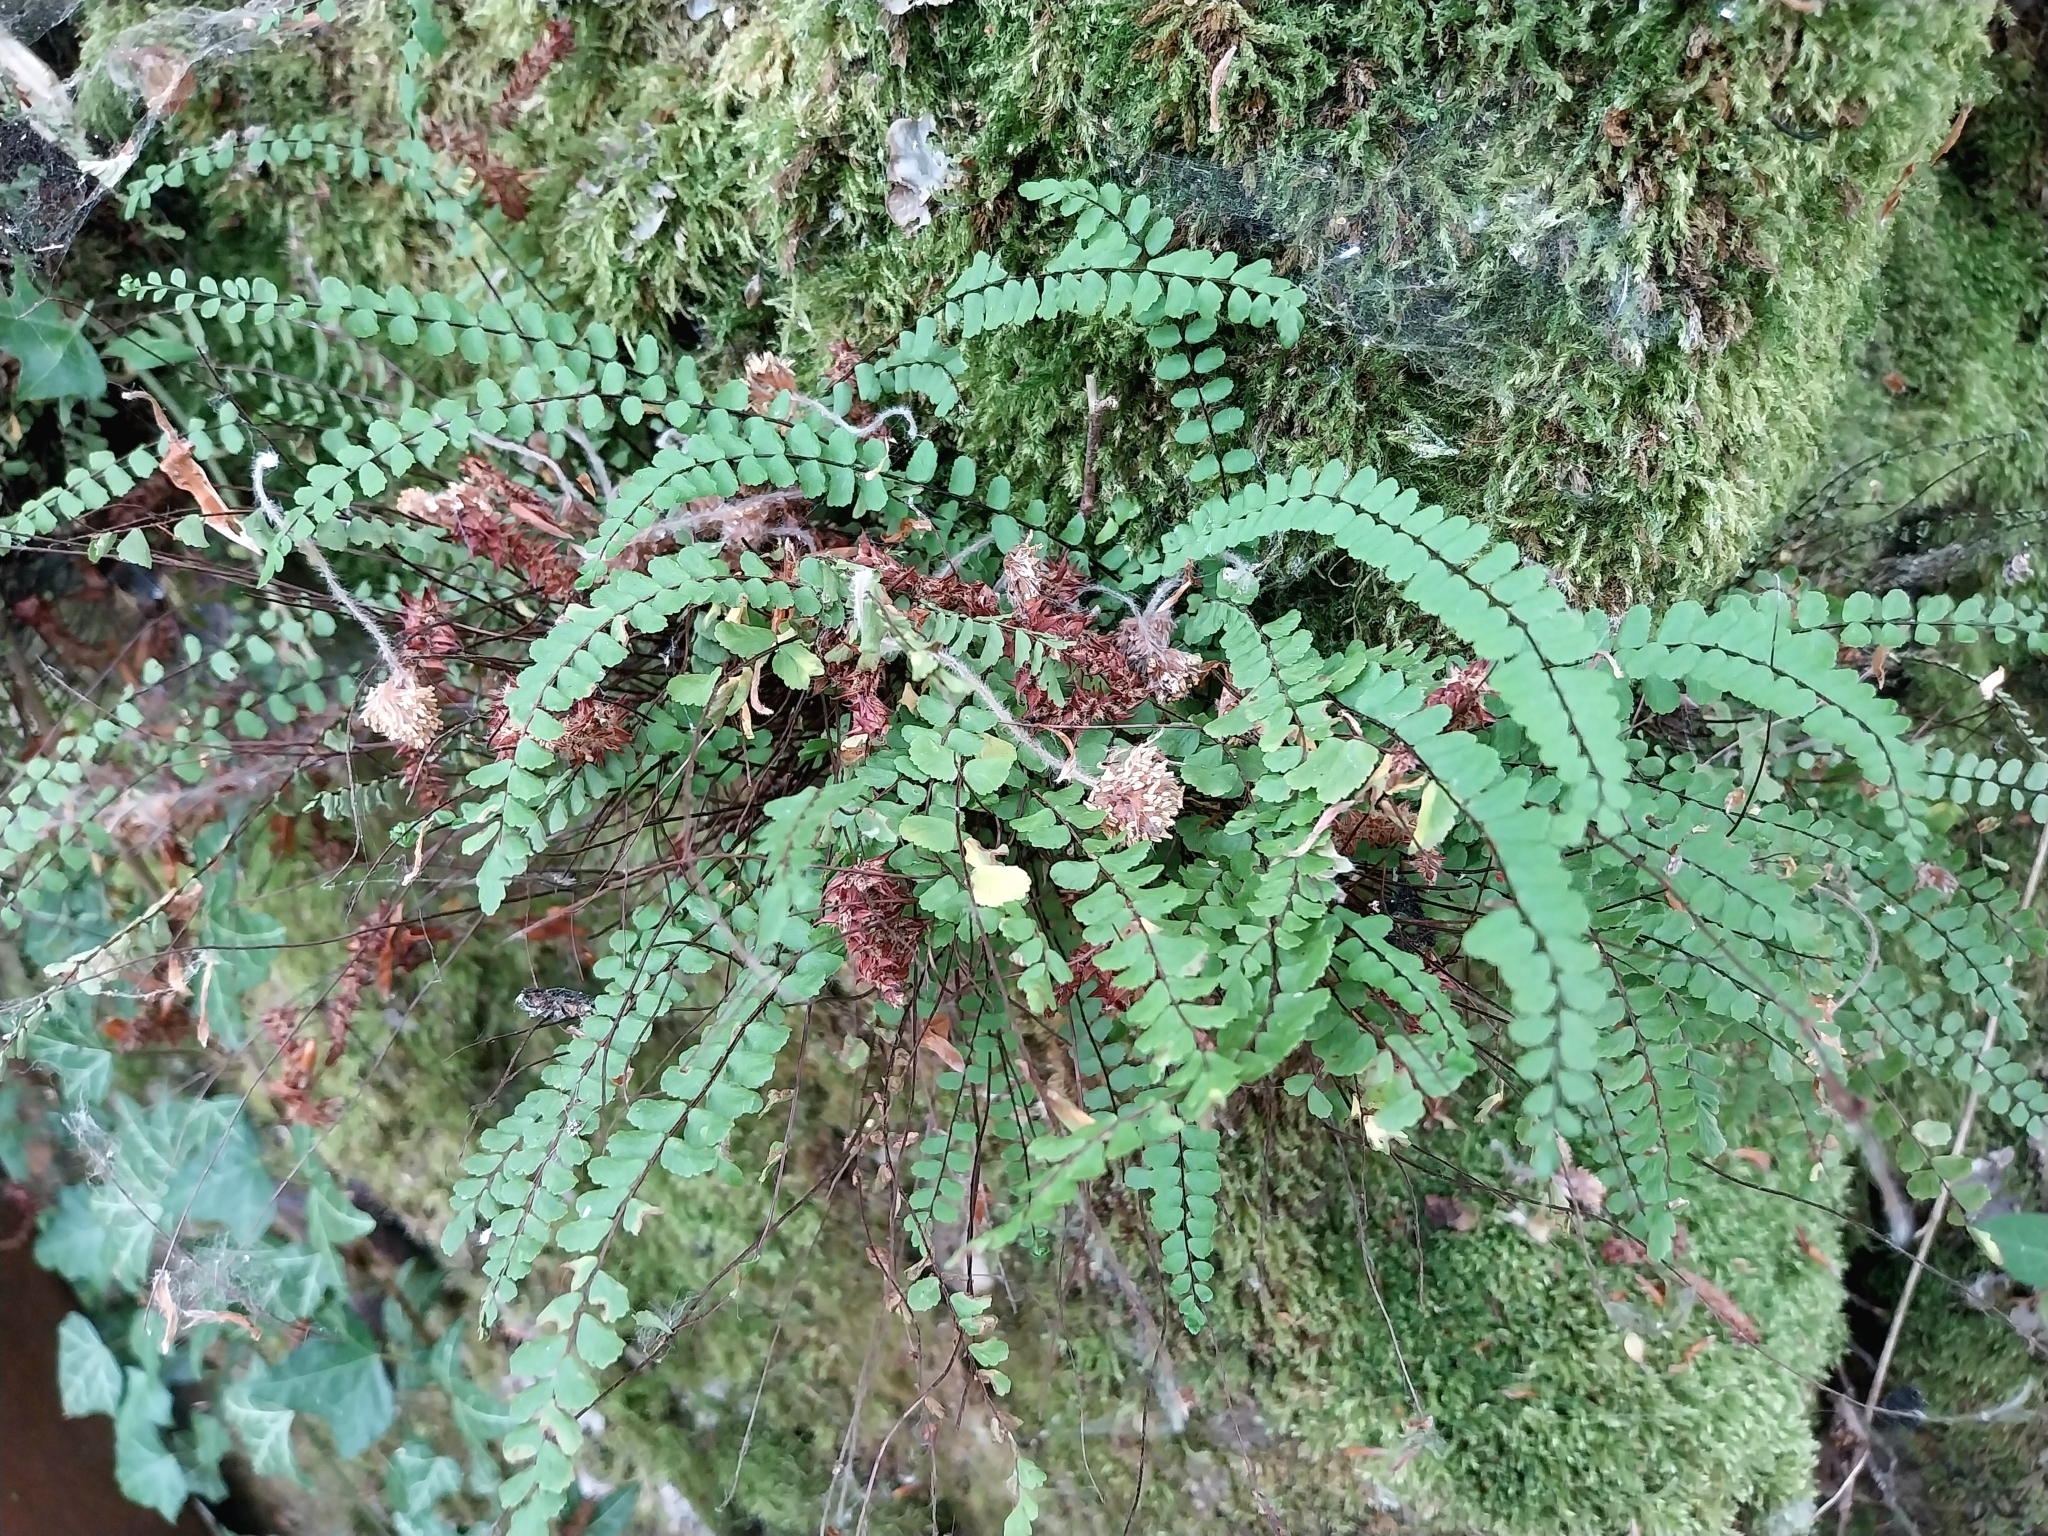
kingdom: Plantae
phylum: Tracheophyta
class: Polypodiopsida
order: Polypodiales
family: Aspleniaceae
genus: Asplenium
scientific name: Asplenium trichomanes
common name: Maidenhair spleenwort
